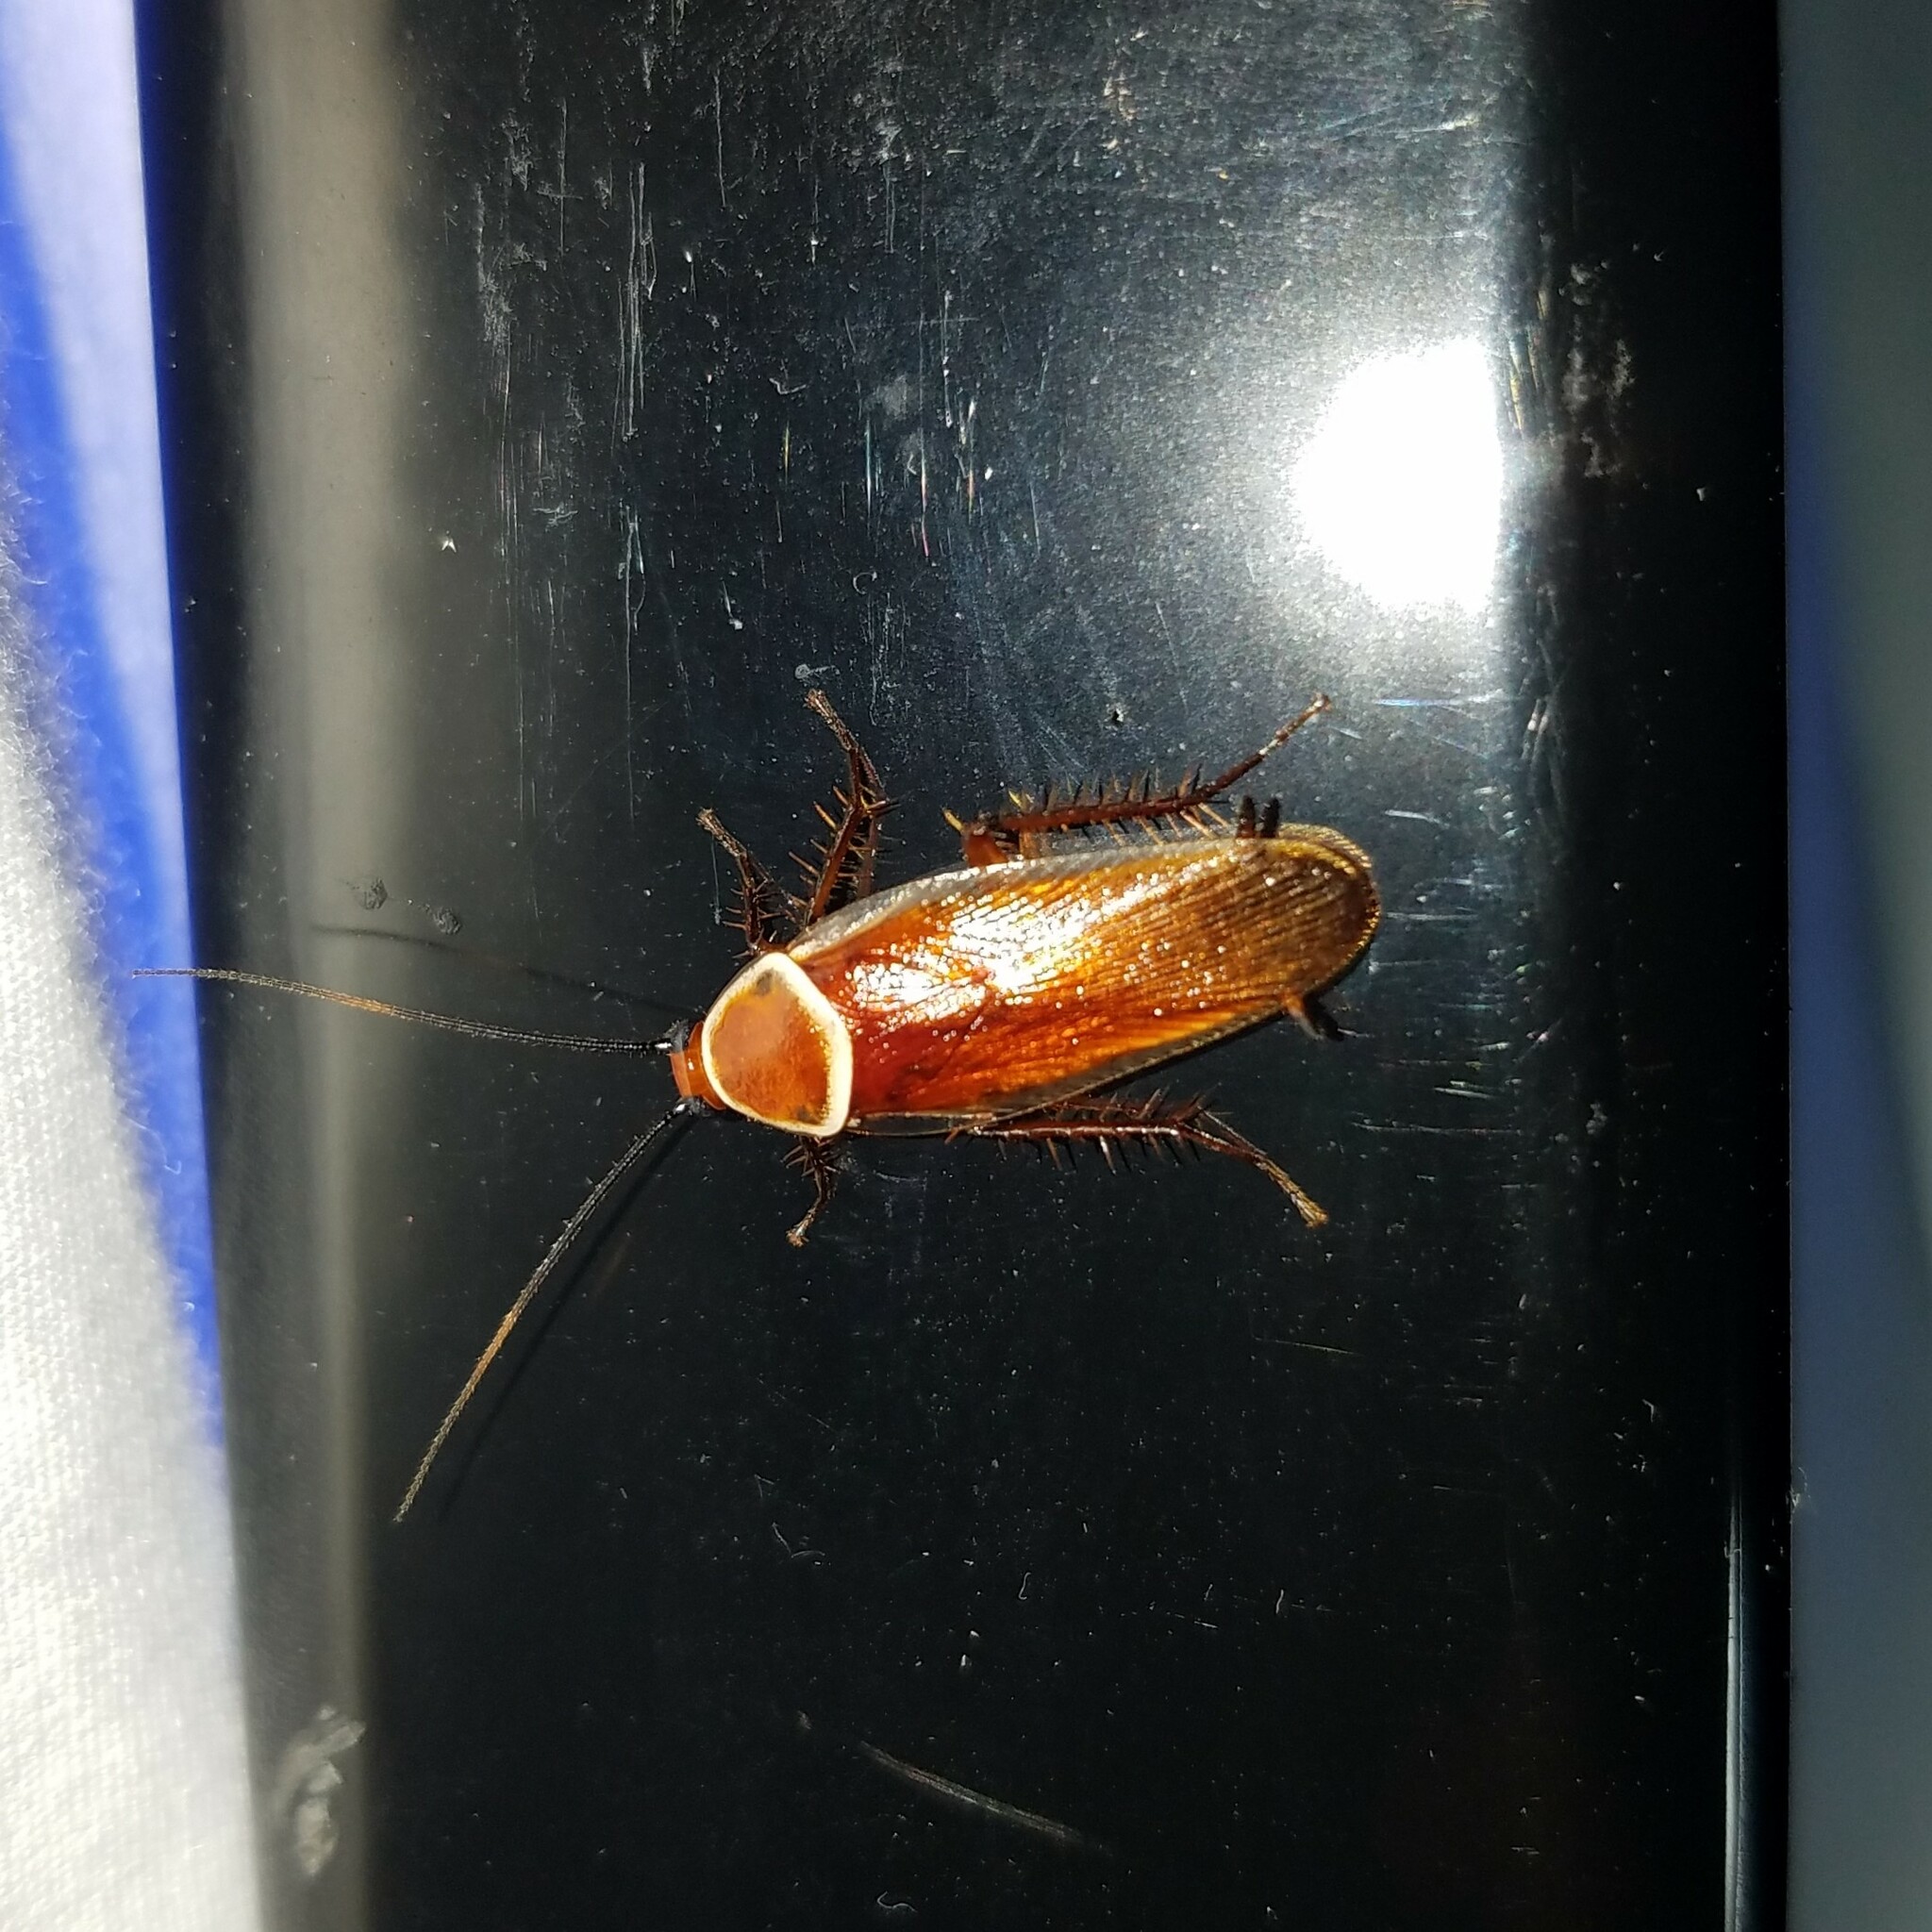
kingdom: Animalia
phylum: Arthropoda
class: Insecta
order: Blattodea
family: Ectobiidae
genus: Pseudomops
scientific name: Pseudomops septentrionalis
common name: Pale-bordered field cockroach
